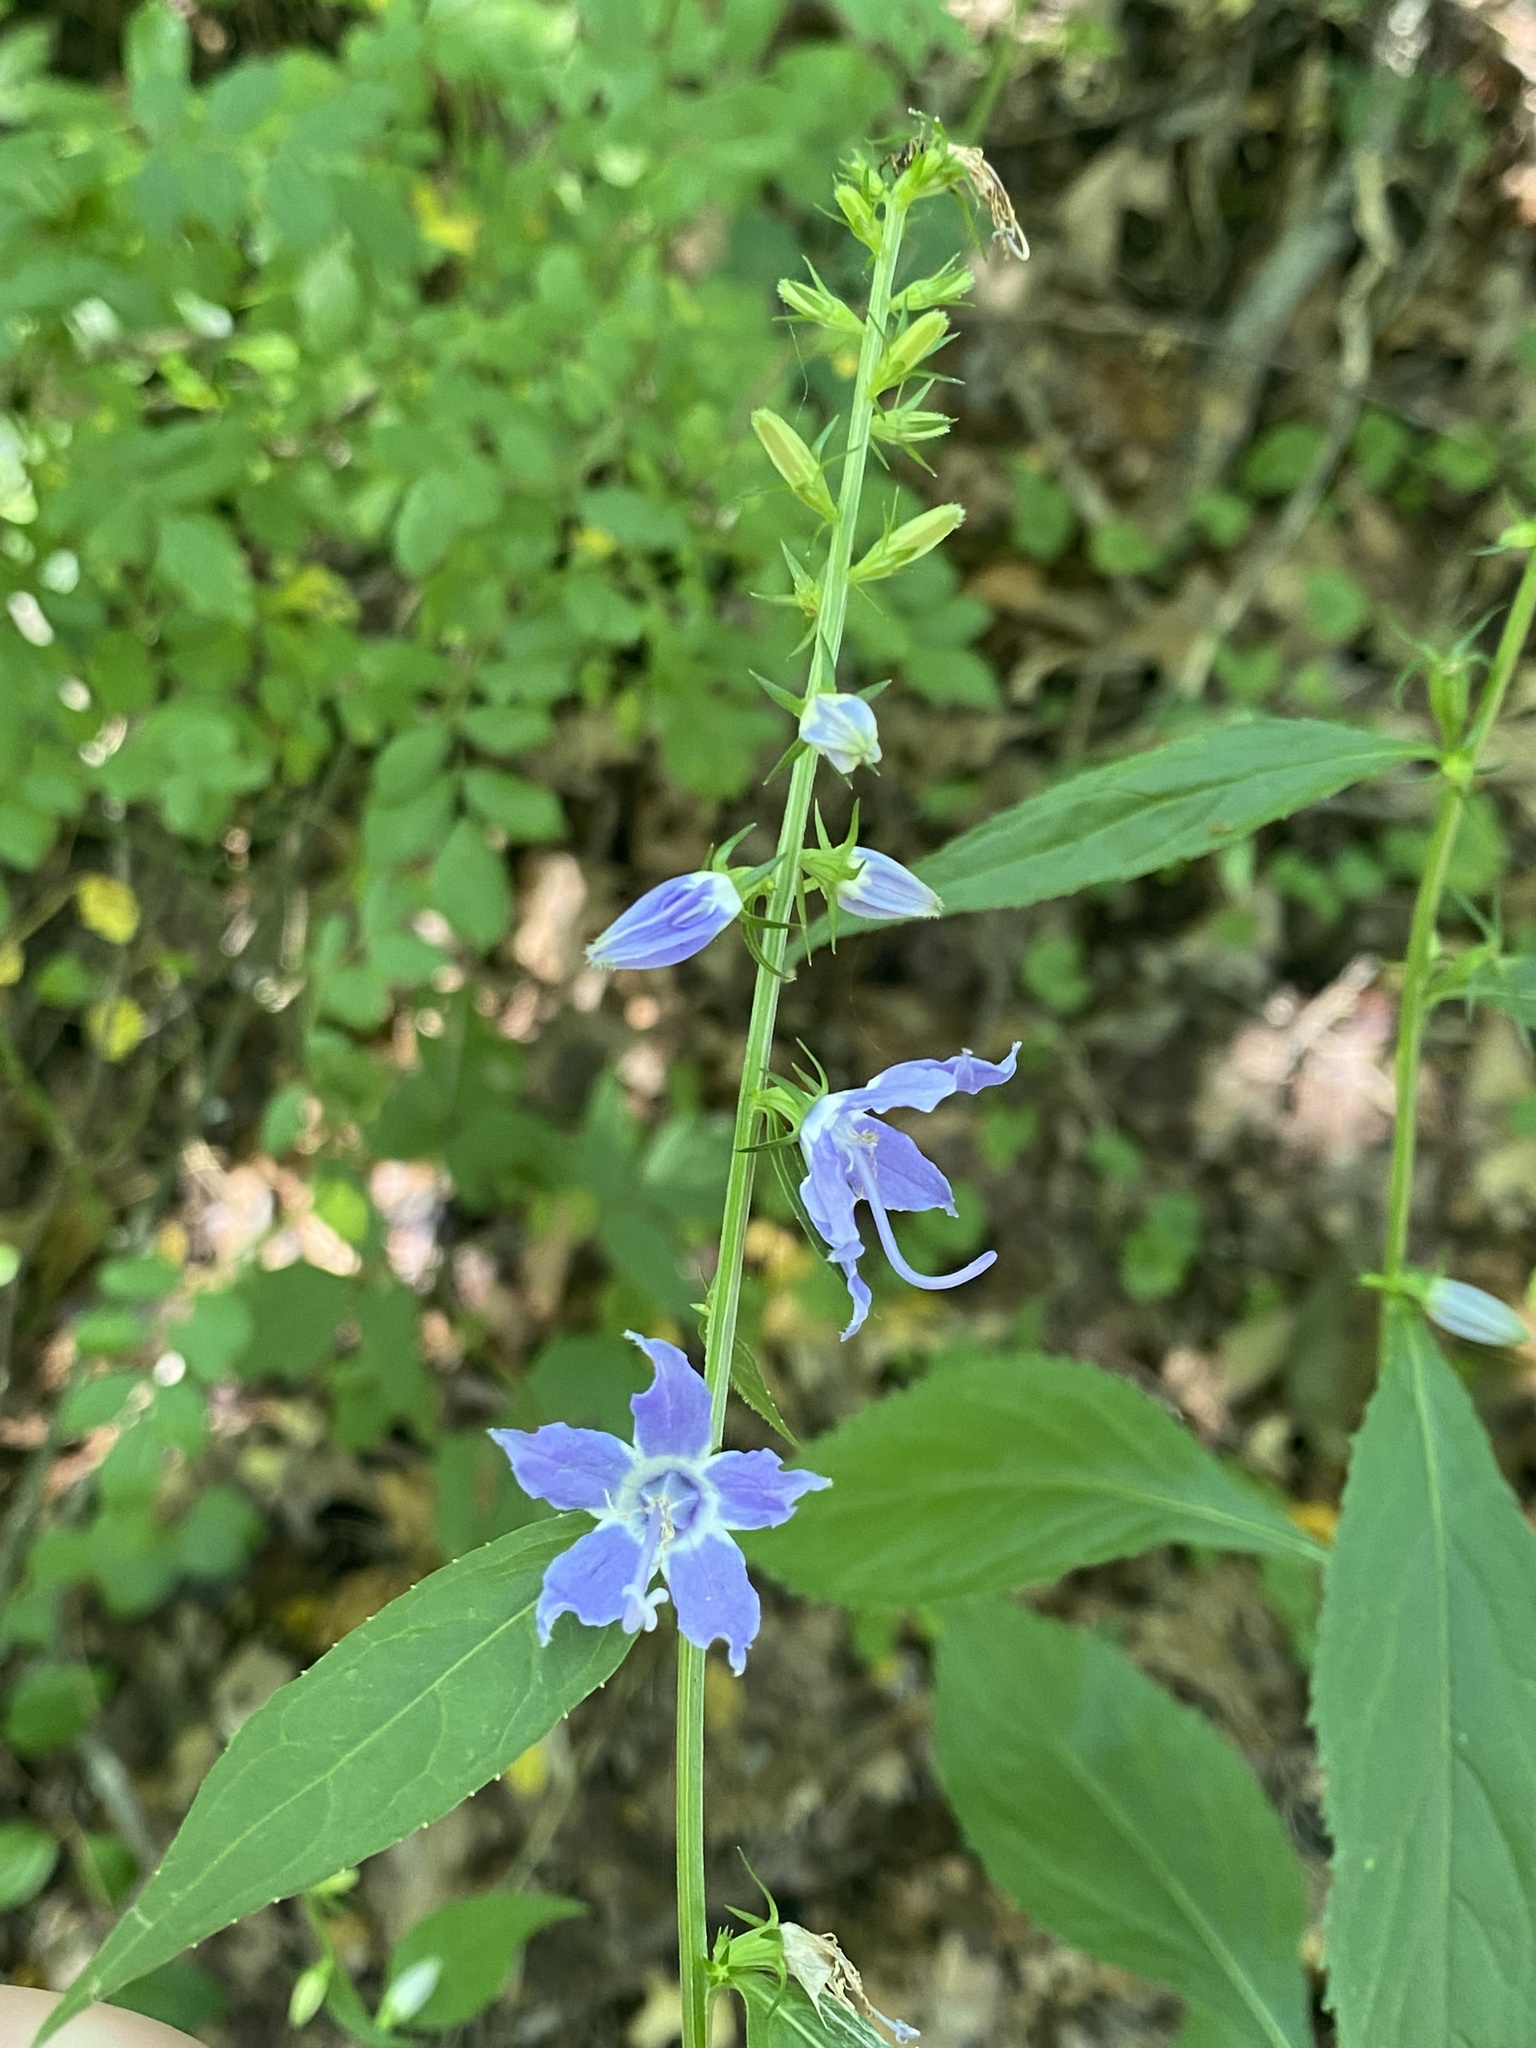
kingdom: Plantae
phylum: Tracheophyta
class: Magnoliopsida
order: Asterales
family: Campanulaceae
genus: Campanulastrum
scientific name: Campanulastrum americanum
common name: American bellflower
